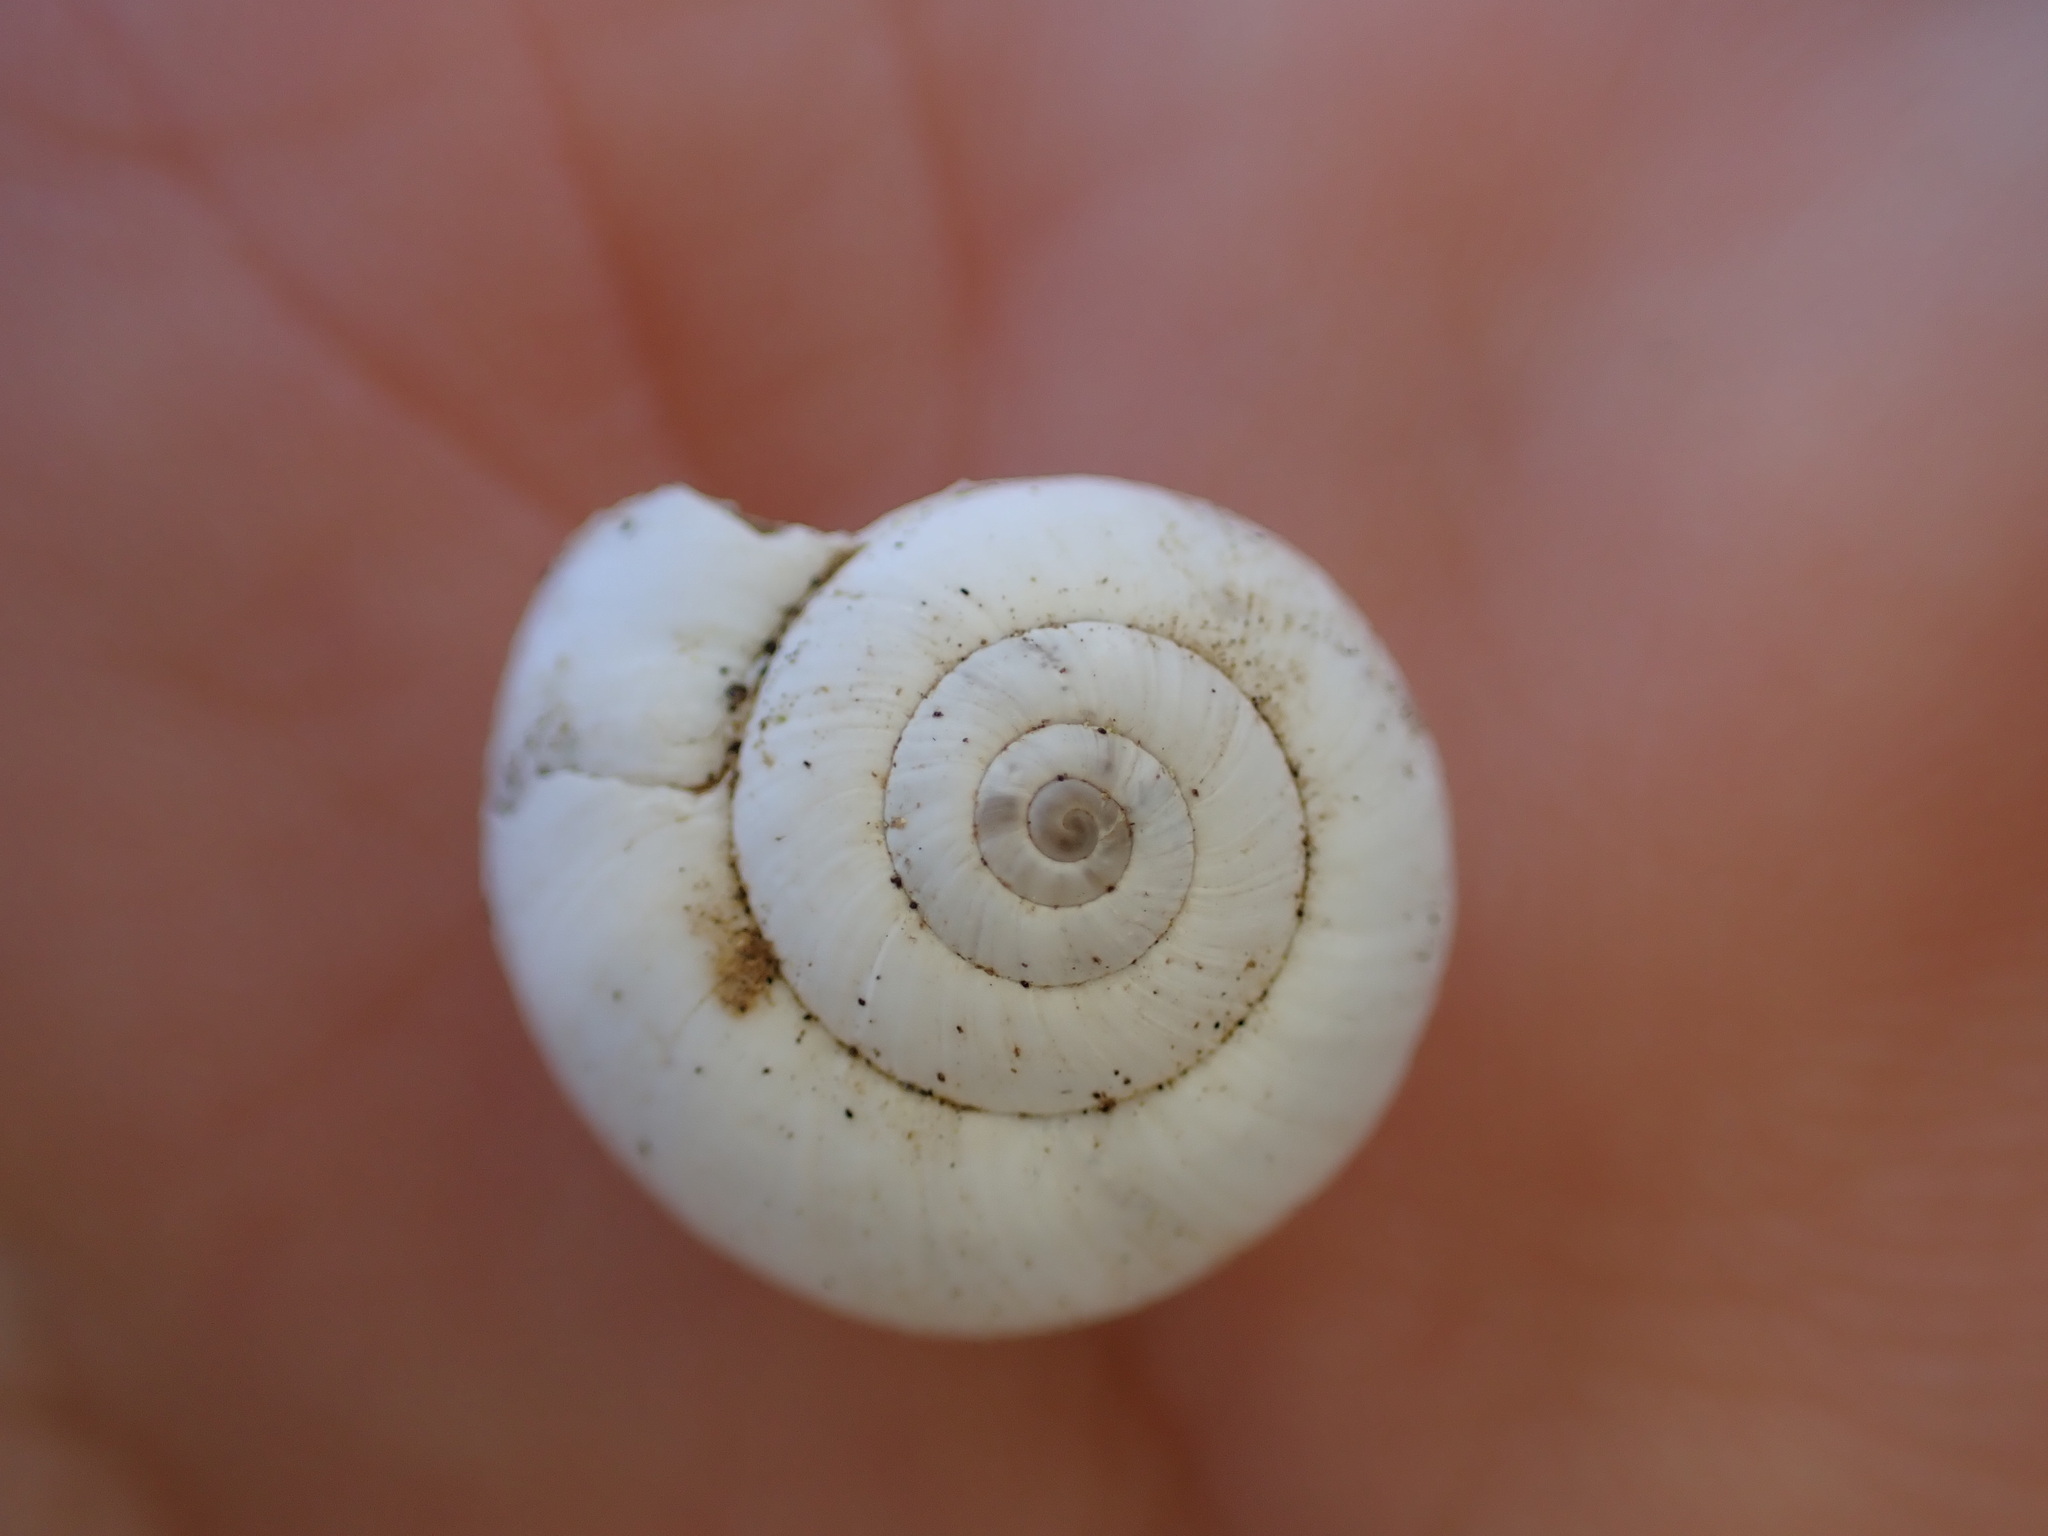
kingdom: Animalia
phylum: Mollusca
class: Gastropoda
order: Stylommatophora
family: Geomitridae
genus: Xeropicta
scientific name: Xeropicta derbentina
